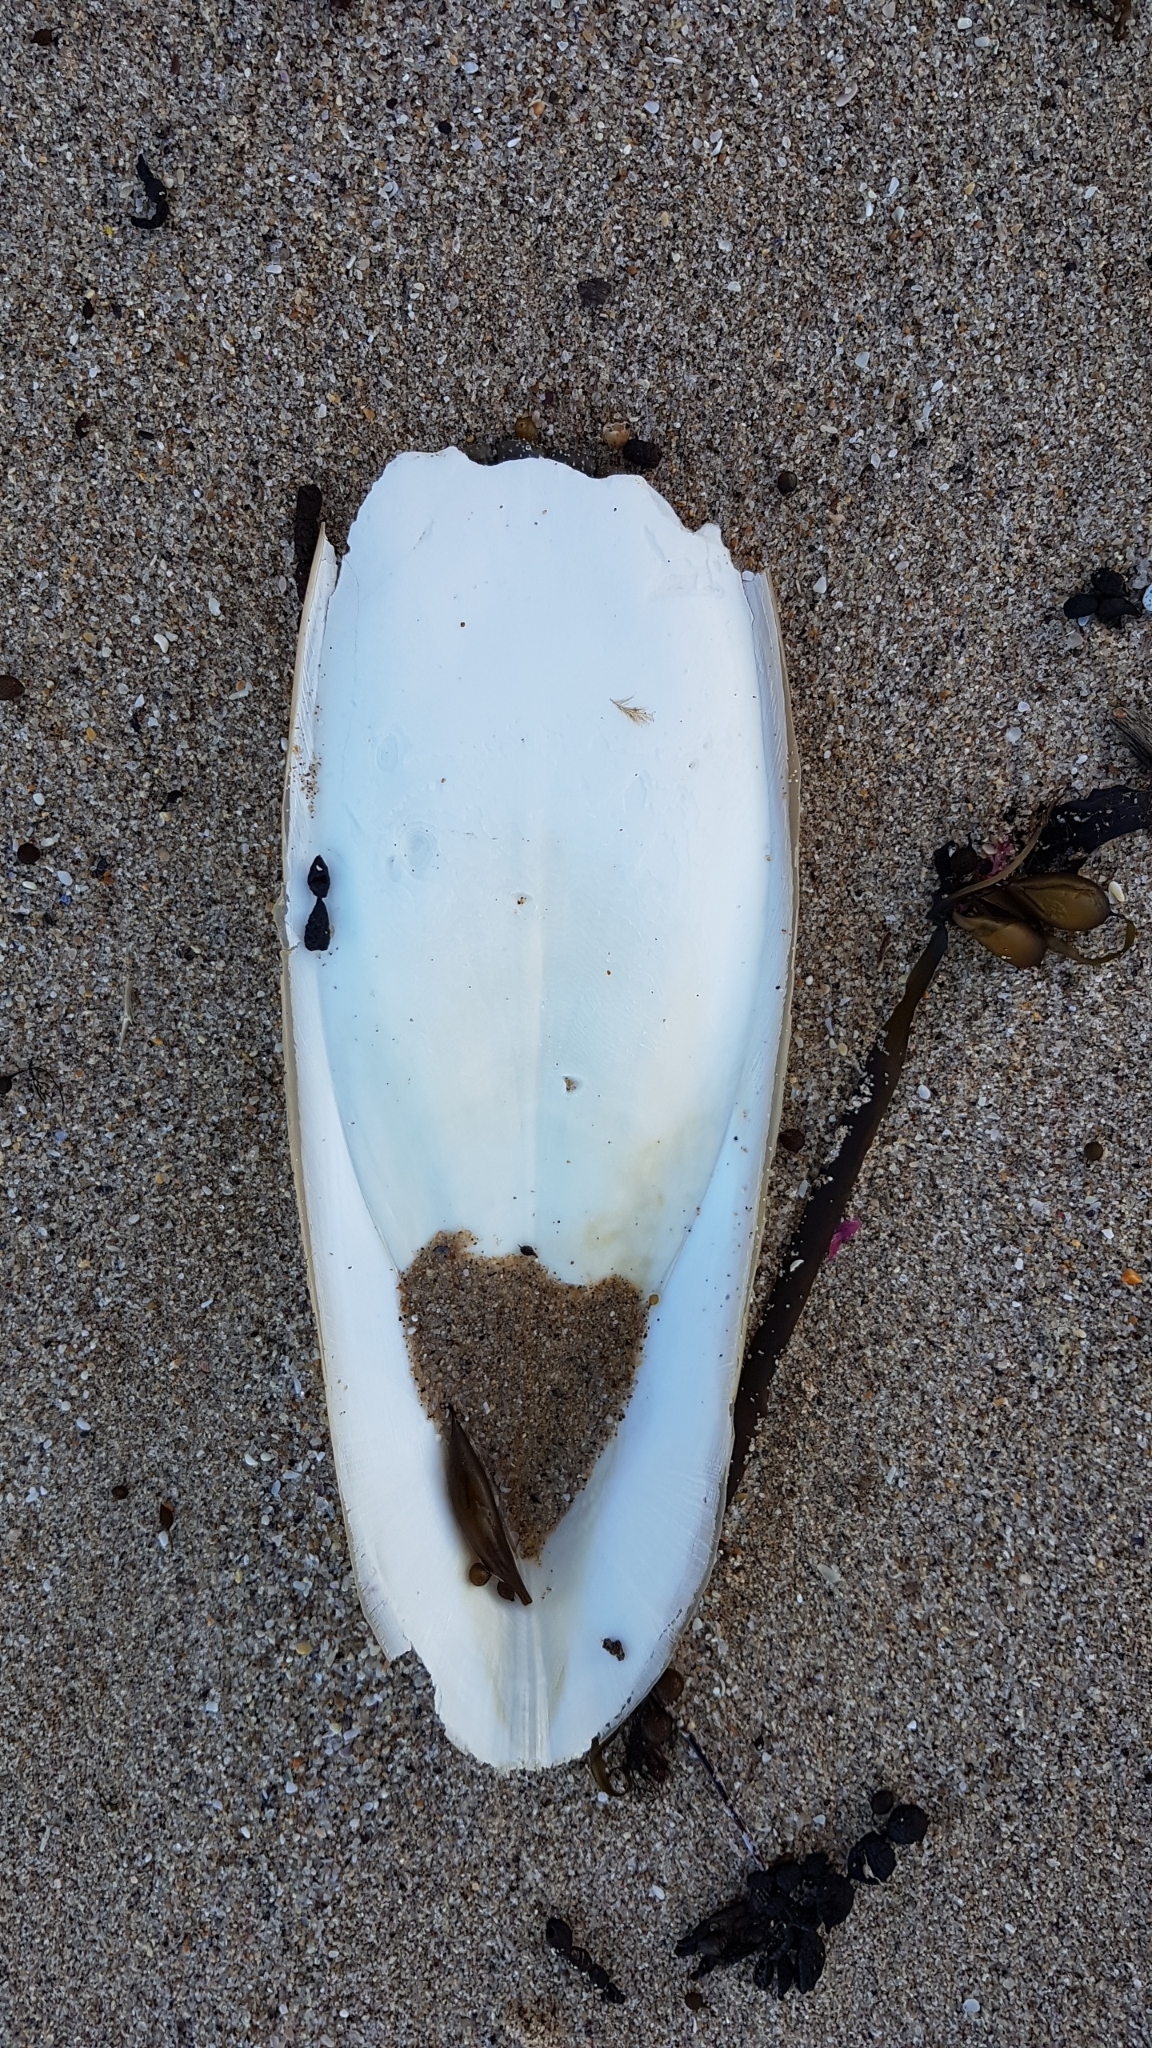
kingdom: Animalia
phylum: Mollusca
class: Cephalopoda
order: Sepiida
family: Sepiidae
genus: Ascarosepion
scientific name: Ascarosepion apama
